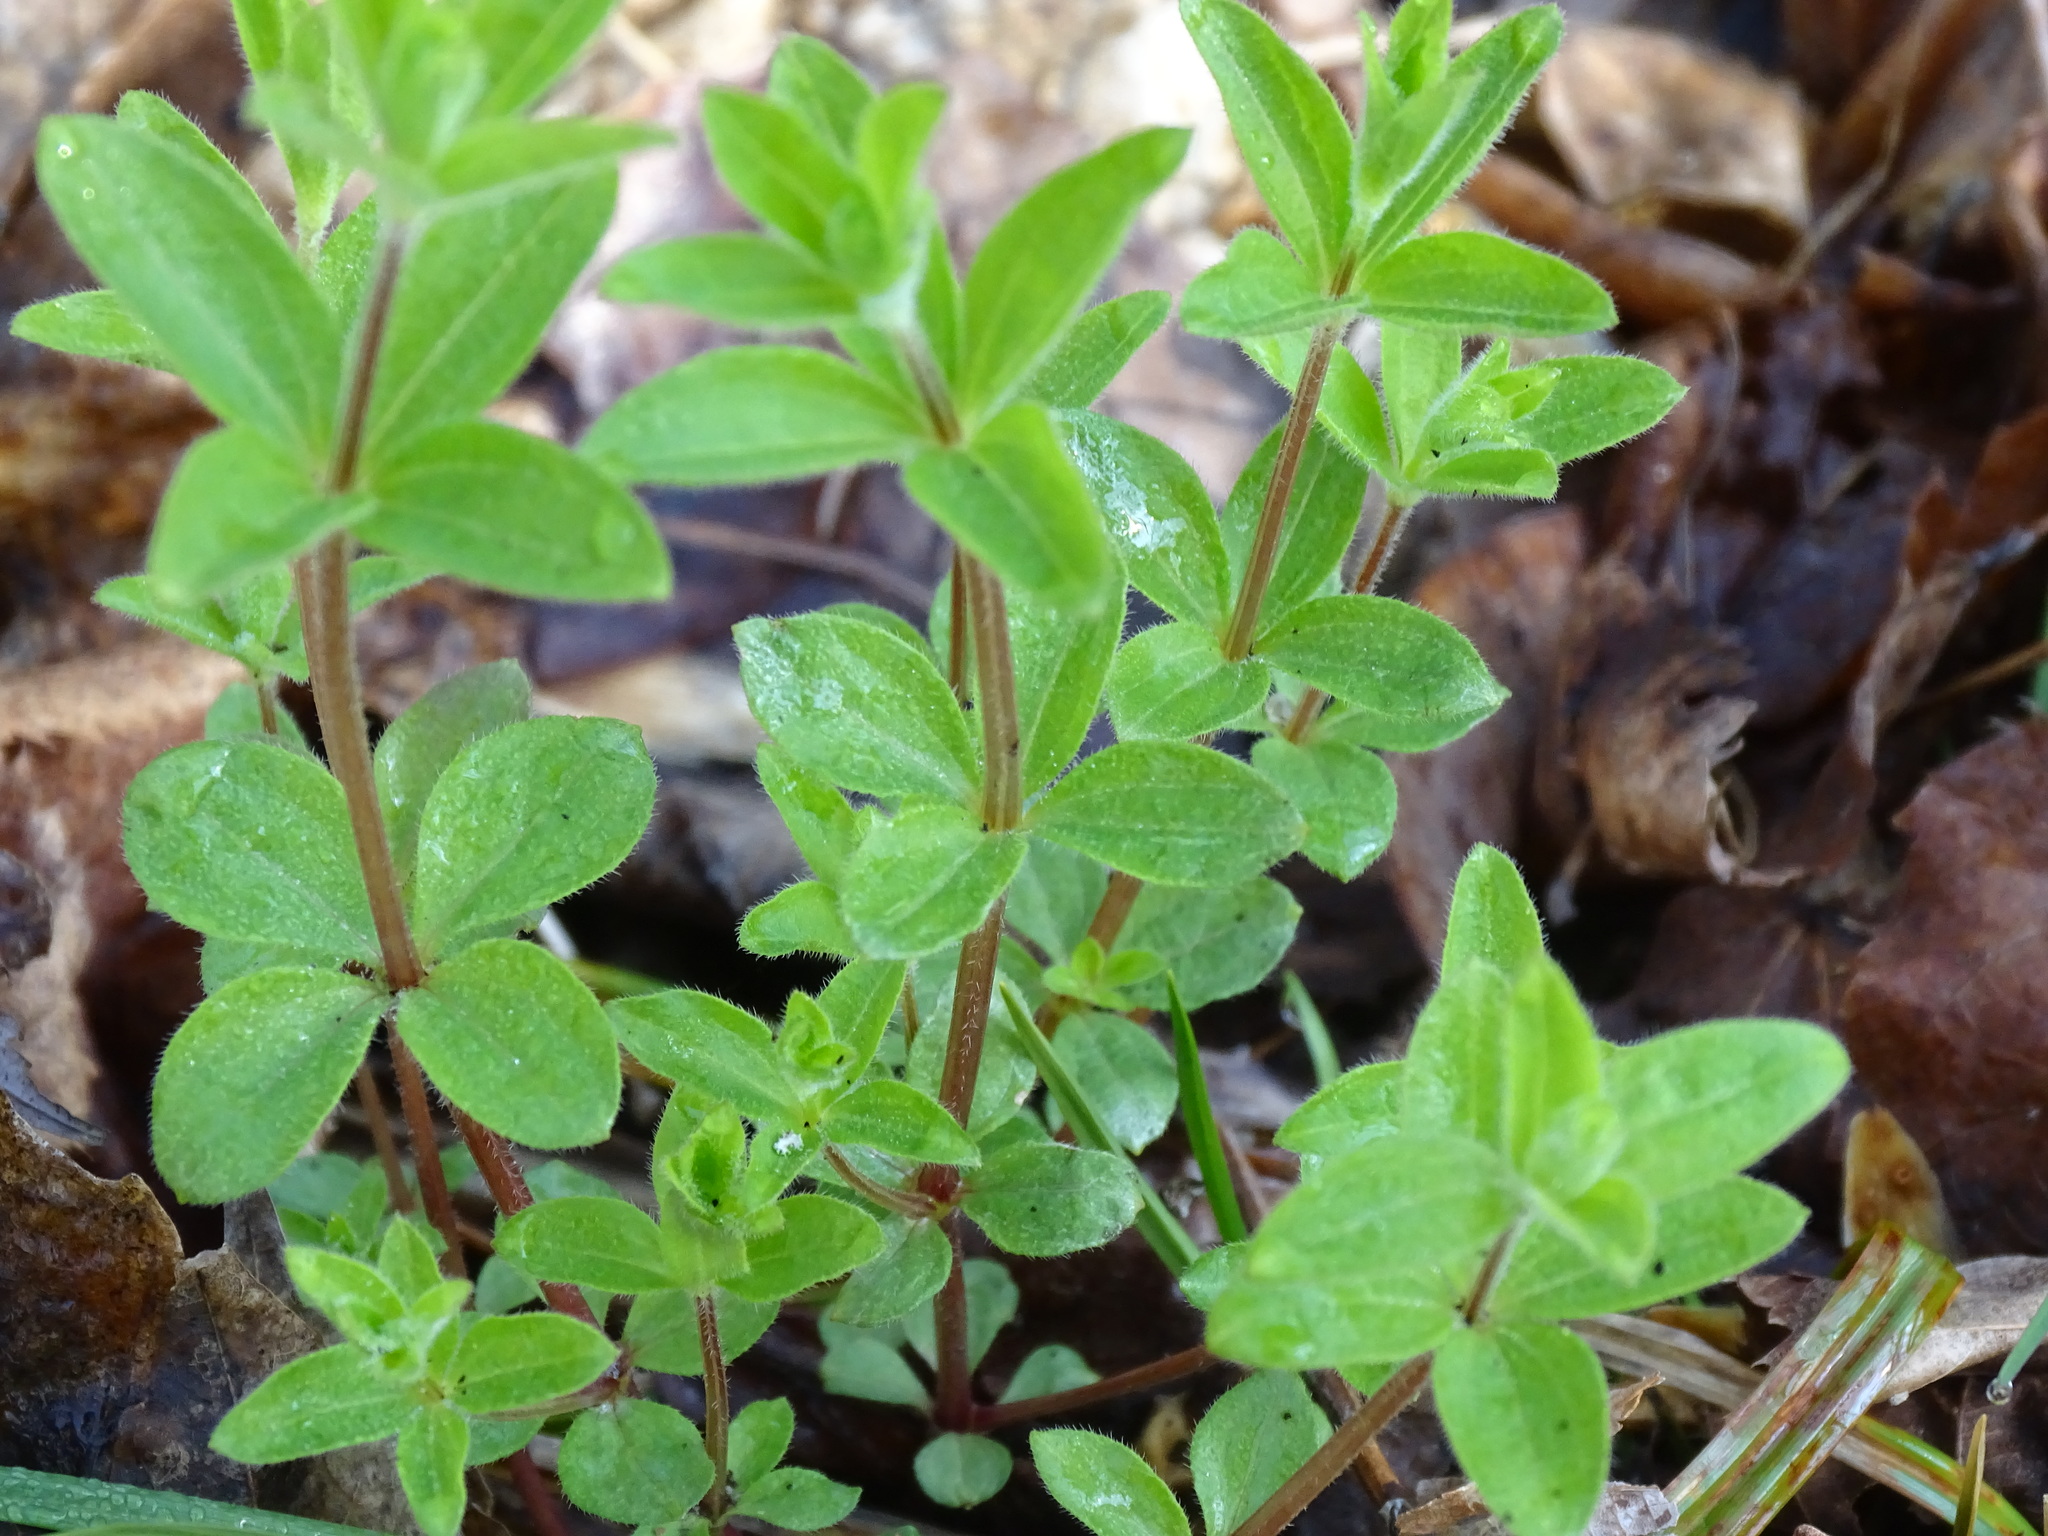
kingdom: Plantae
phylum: Tracheophyta
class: Magnoliopsida
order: Gentianales
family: Rubiaceae
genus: Galium
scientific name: Galium circaezans
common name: Forest bedstraw
